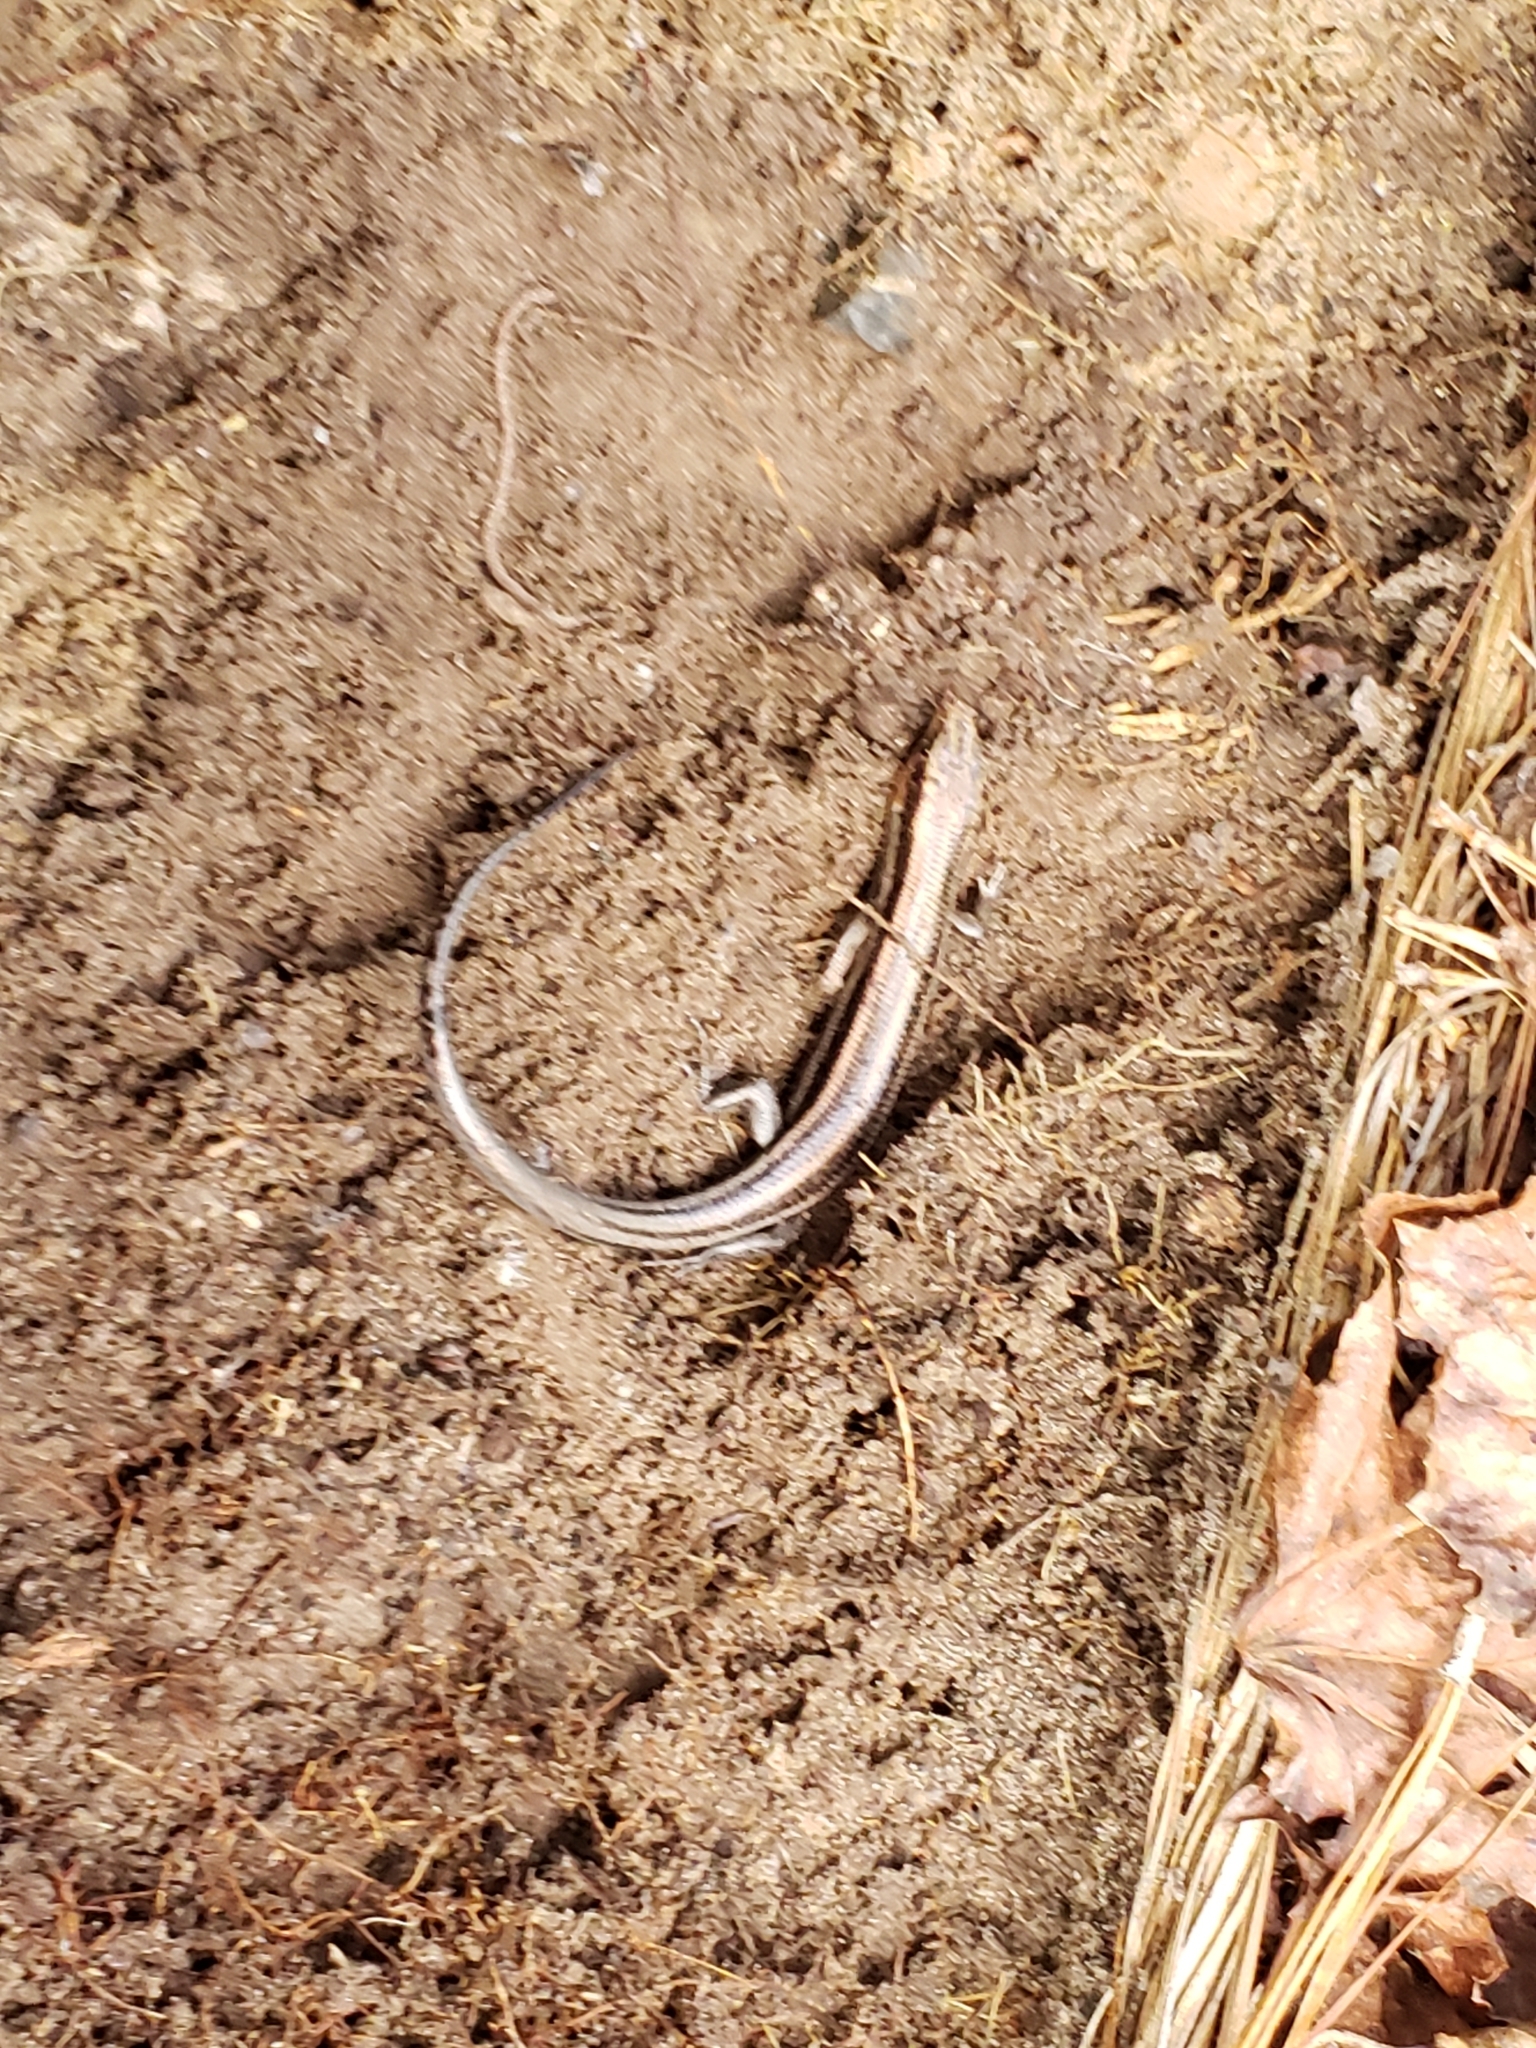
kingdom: Animalia
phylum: Chordata
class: Squamata
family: Scincidae
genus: Plestiodon
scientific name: Plestiodon fasciatus
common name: Five-lined skink
